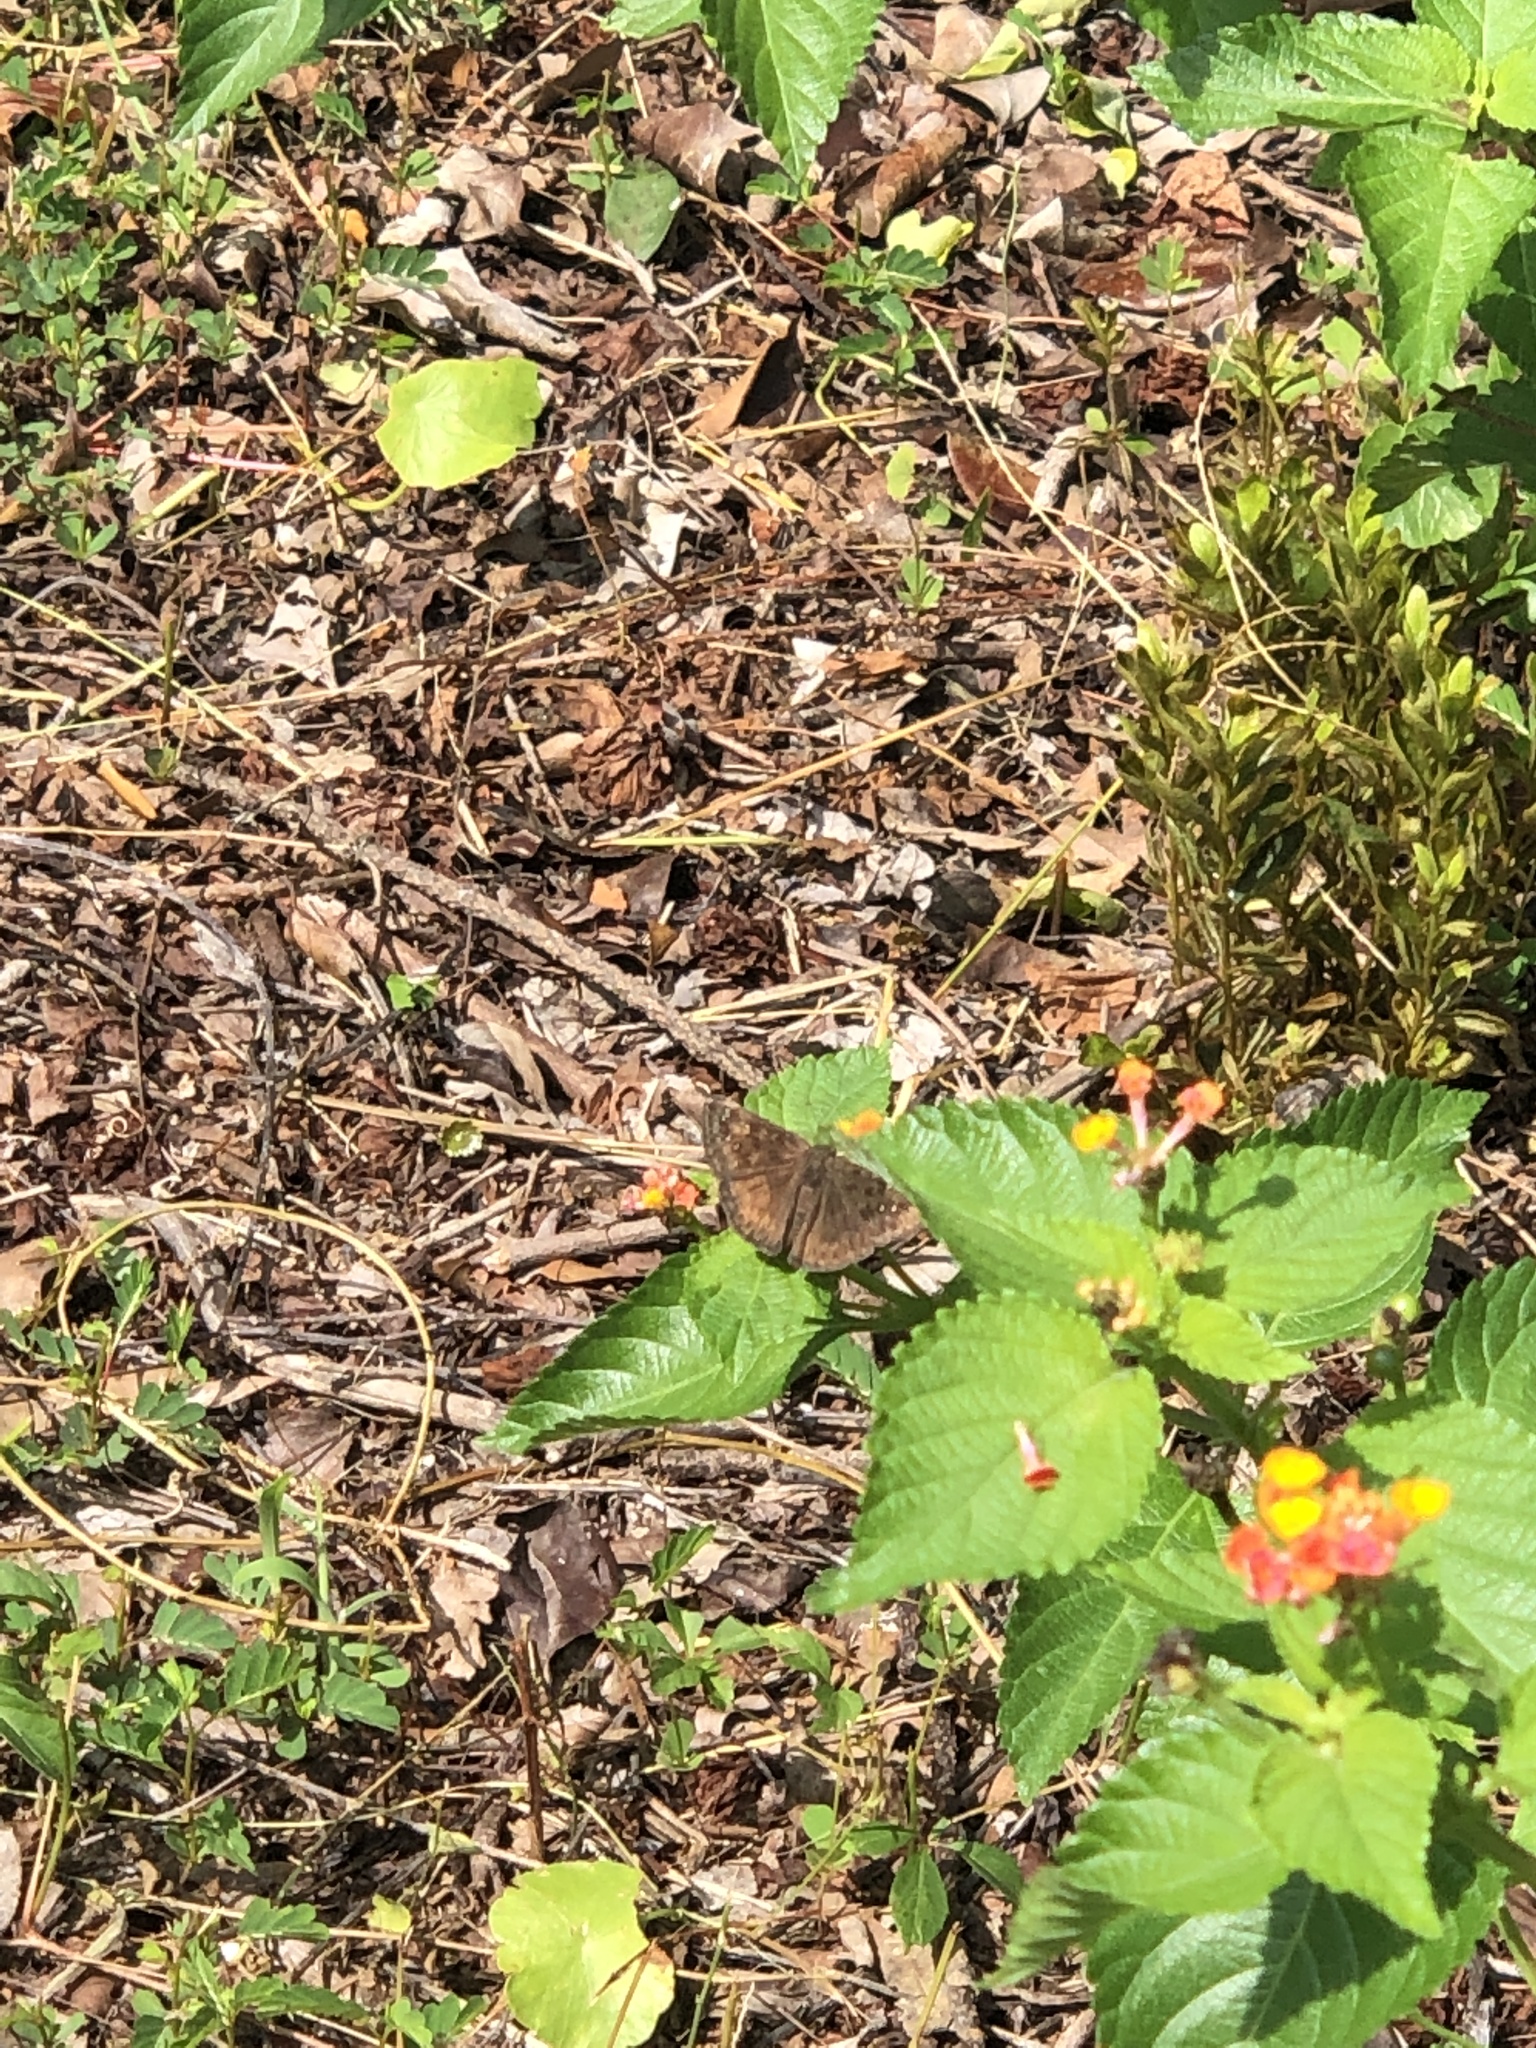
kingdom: Animalia
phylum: Arthropoda
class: Insecta
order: Lepidoptera
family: Hesperiidae
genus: Erynnis
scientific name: Erynnis horatius
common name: Horace's duskywing
